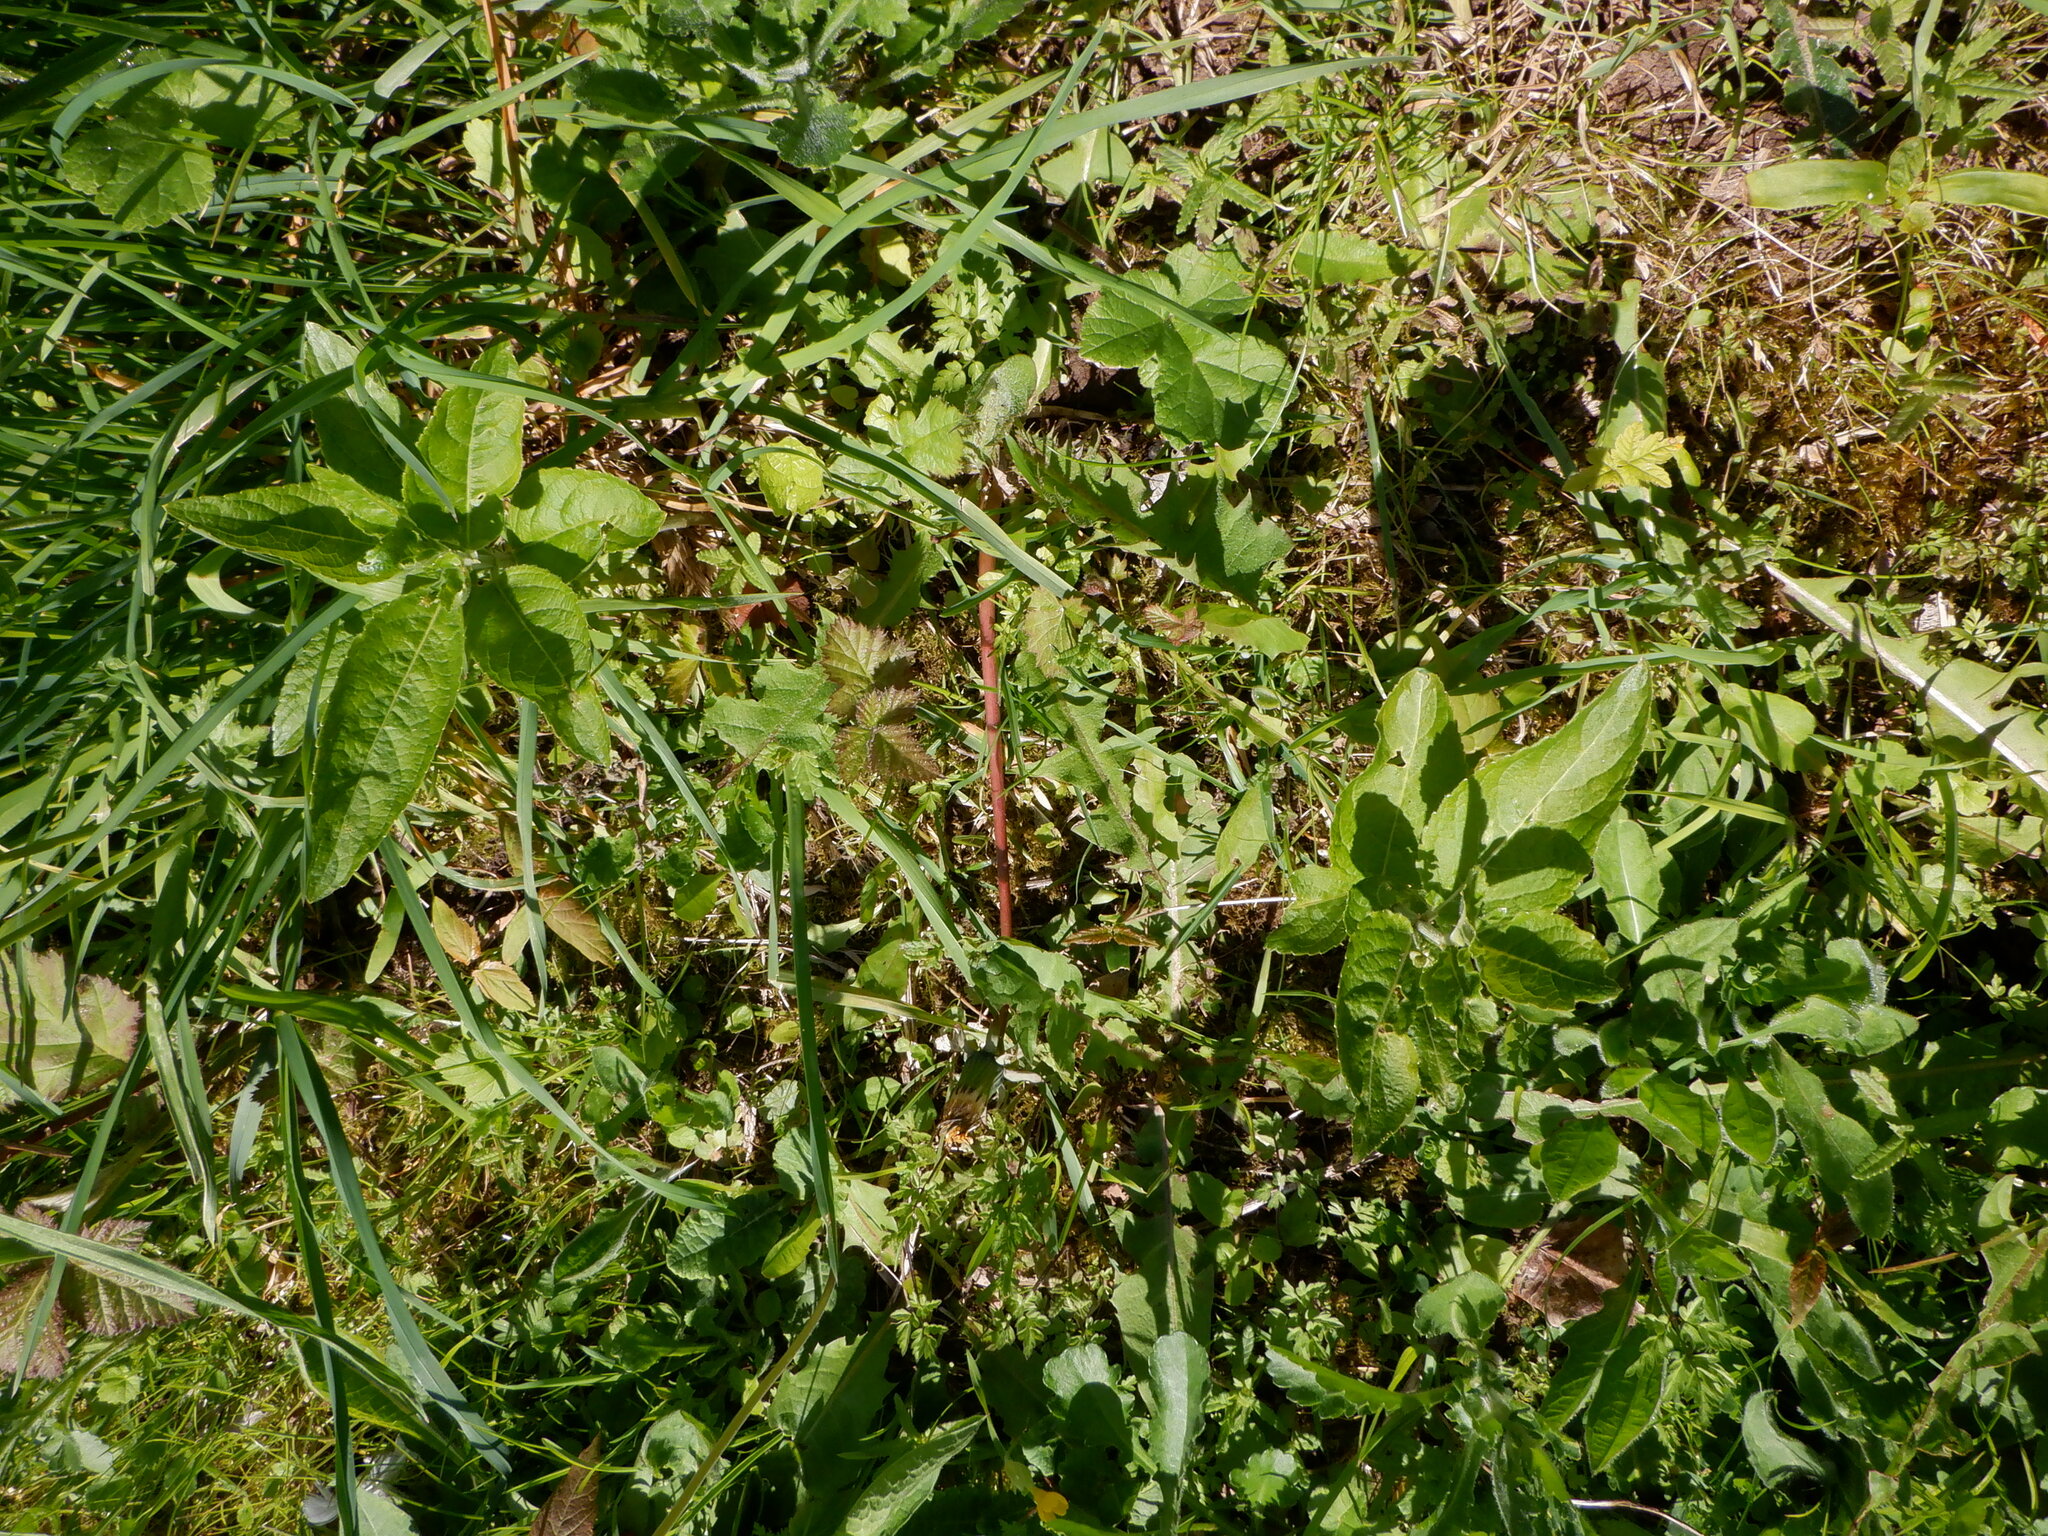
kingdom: Plantae
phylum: Tracheophyta
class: Magnoliopsida
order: Malpighiales
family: Euphorbiaceae
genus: Mercurialis
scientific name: Mercurialis perennis
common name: Dog mercury
